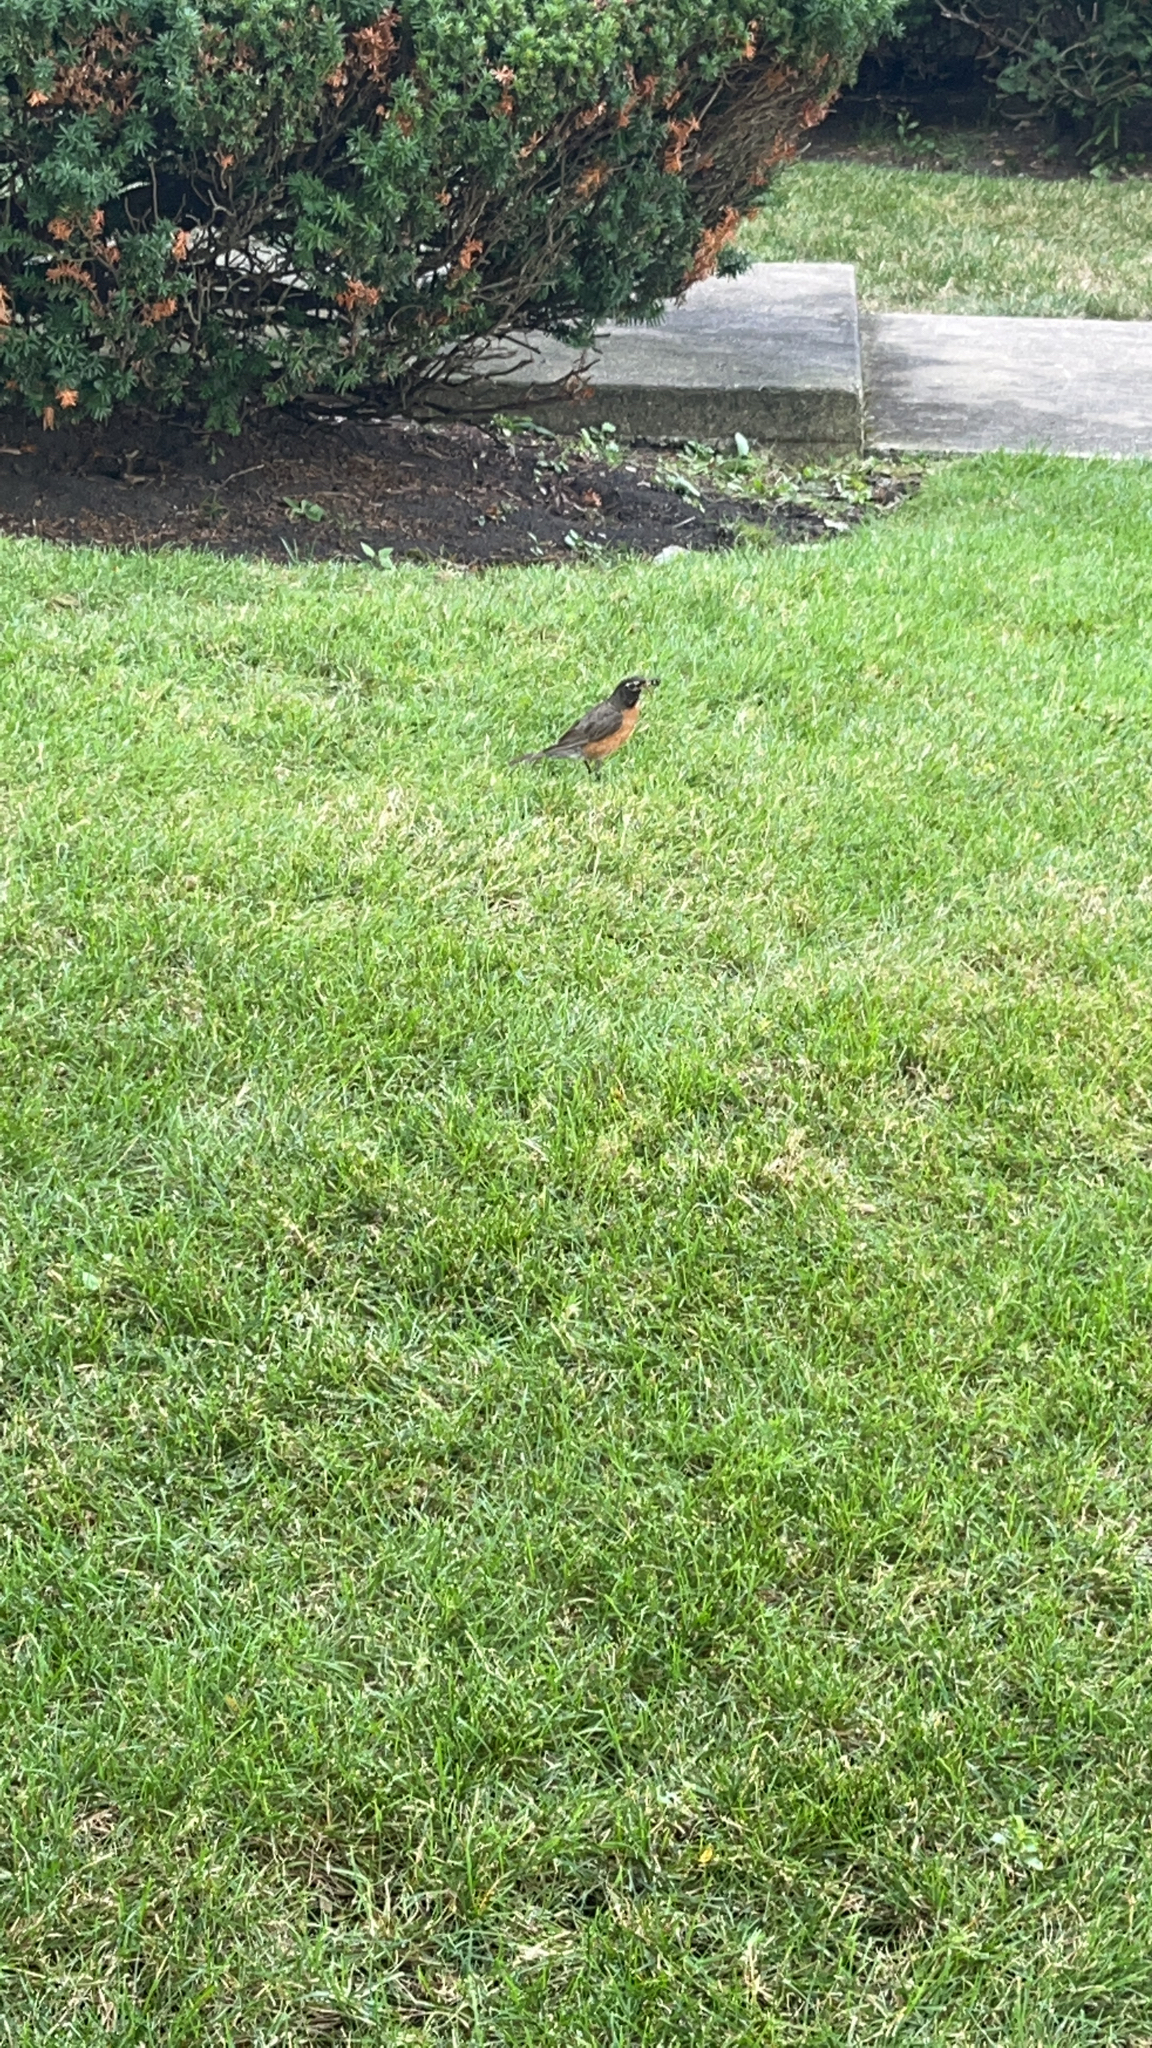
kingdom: Animalia
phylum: Chordata
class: Aves
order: Passeriformes
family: Turdidae
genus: Turdus
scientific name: Turdus migratorius
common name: American robin
